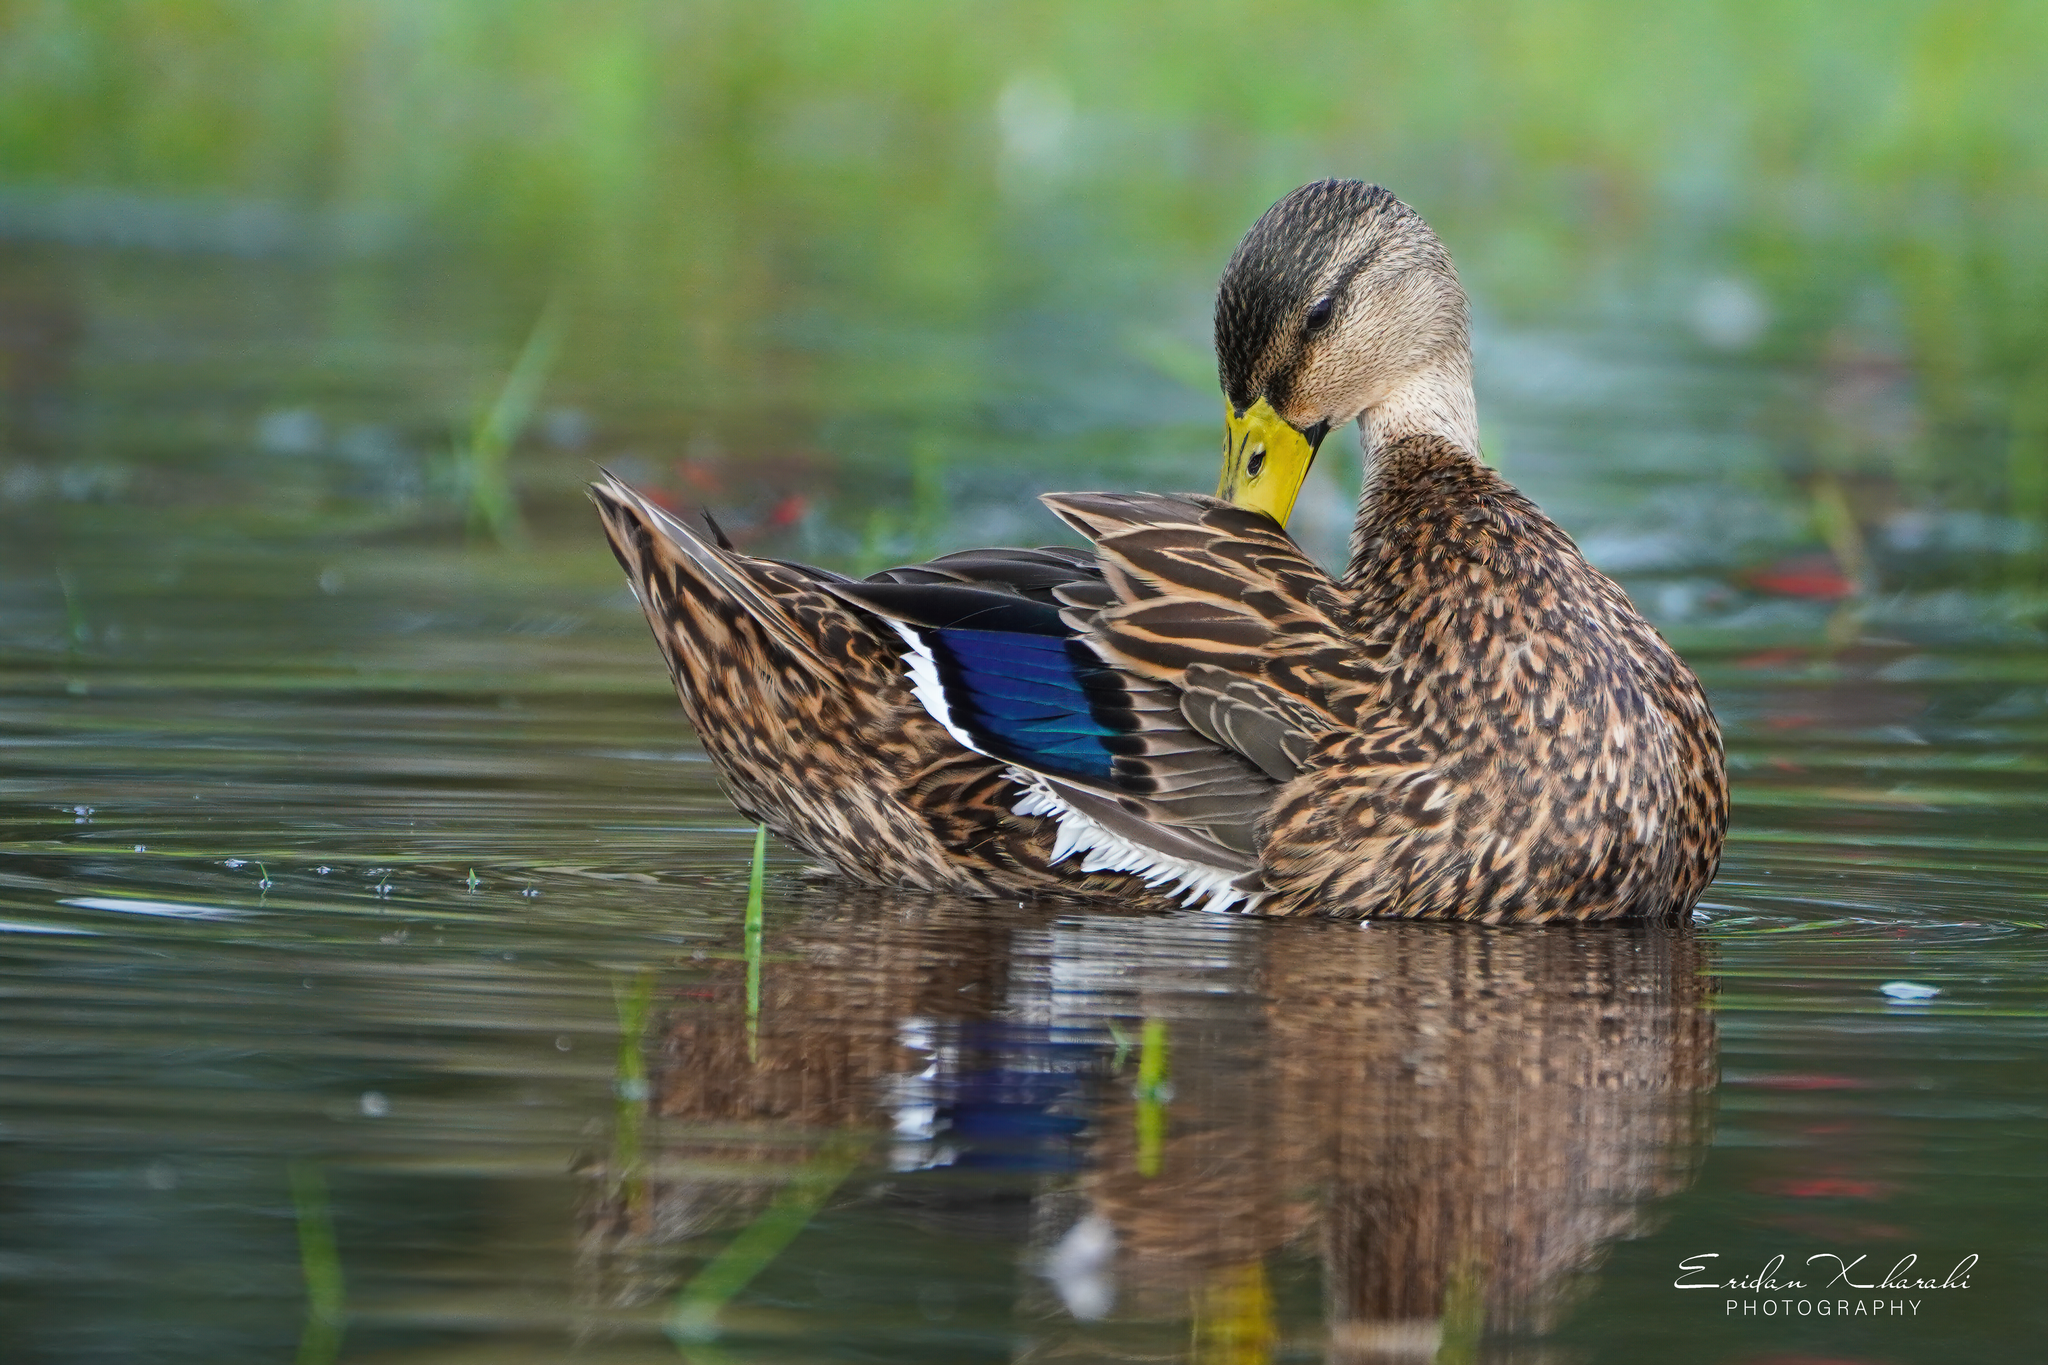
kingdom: Animalia
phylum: Chordata
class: Aves
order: Anseriformes
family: Anatidae
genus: Anas
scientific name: Anas
